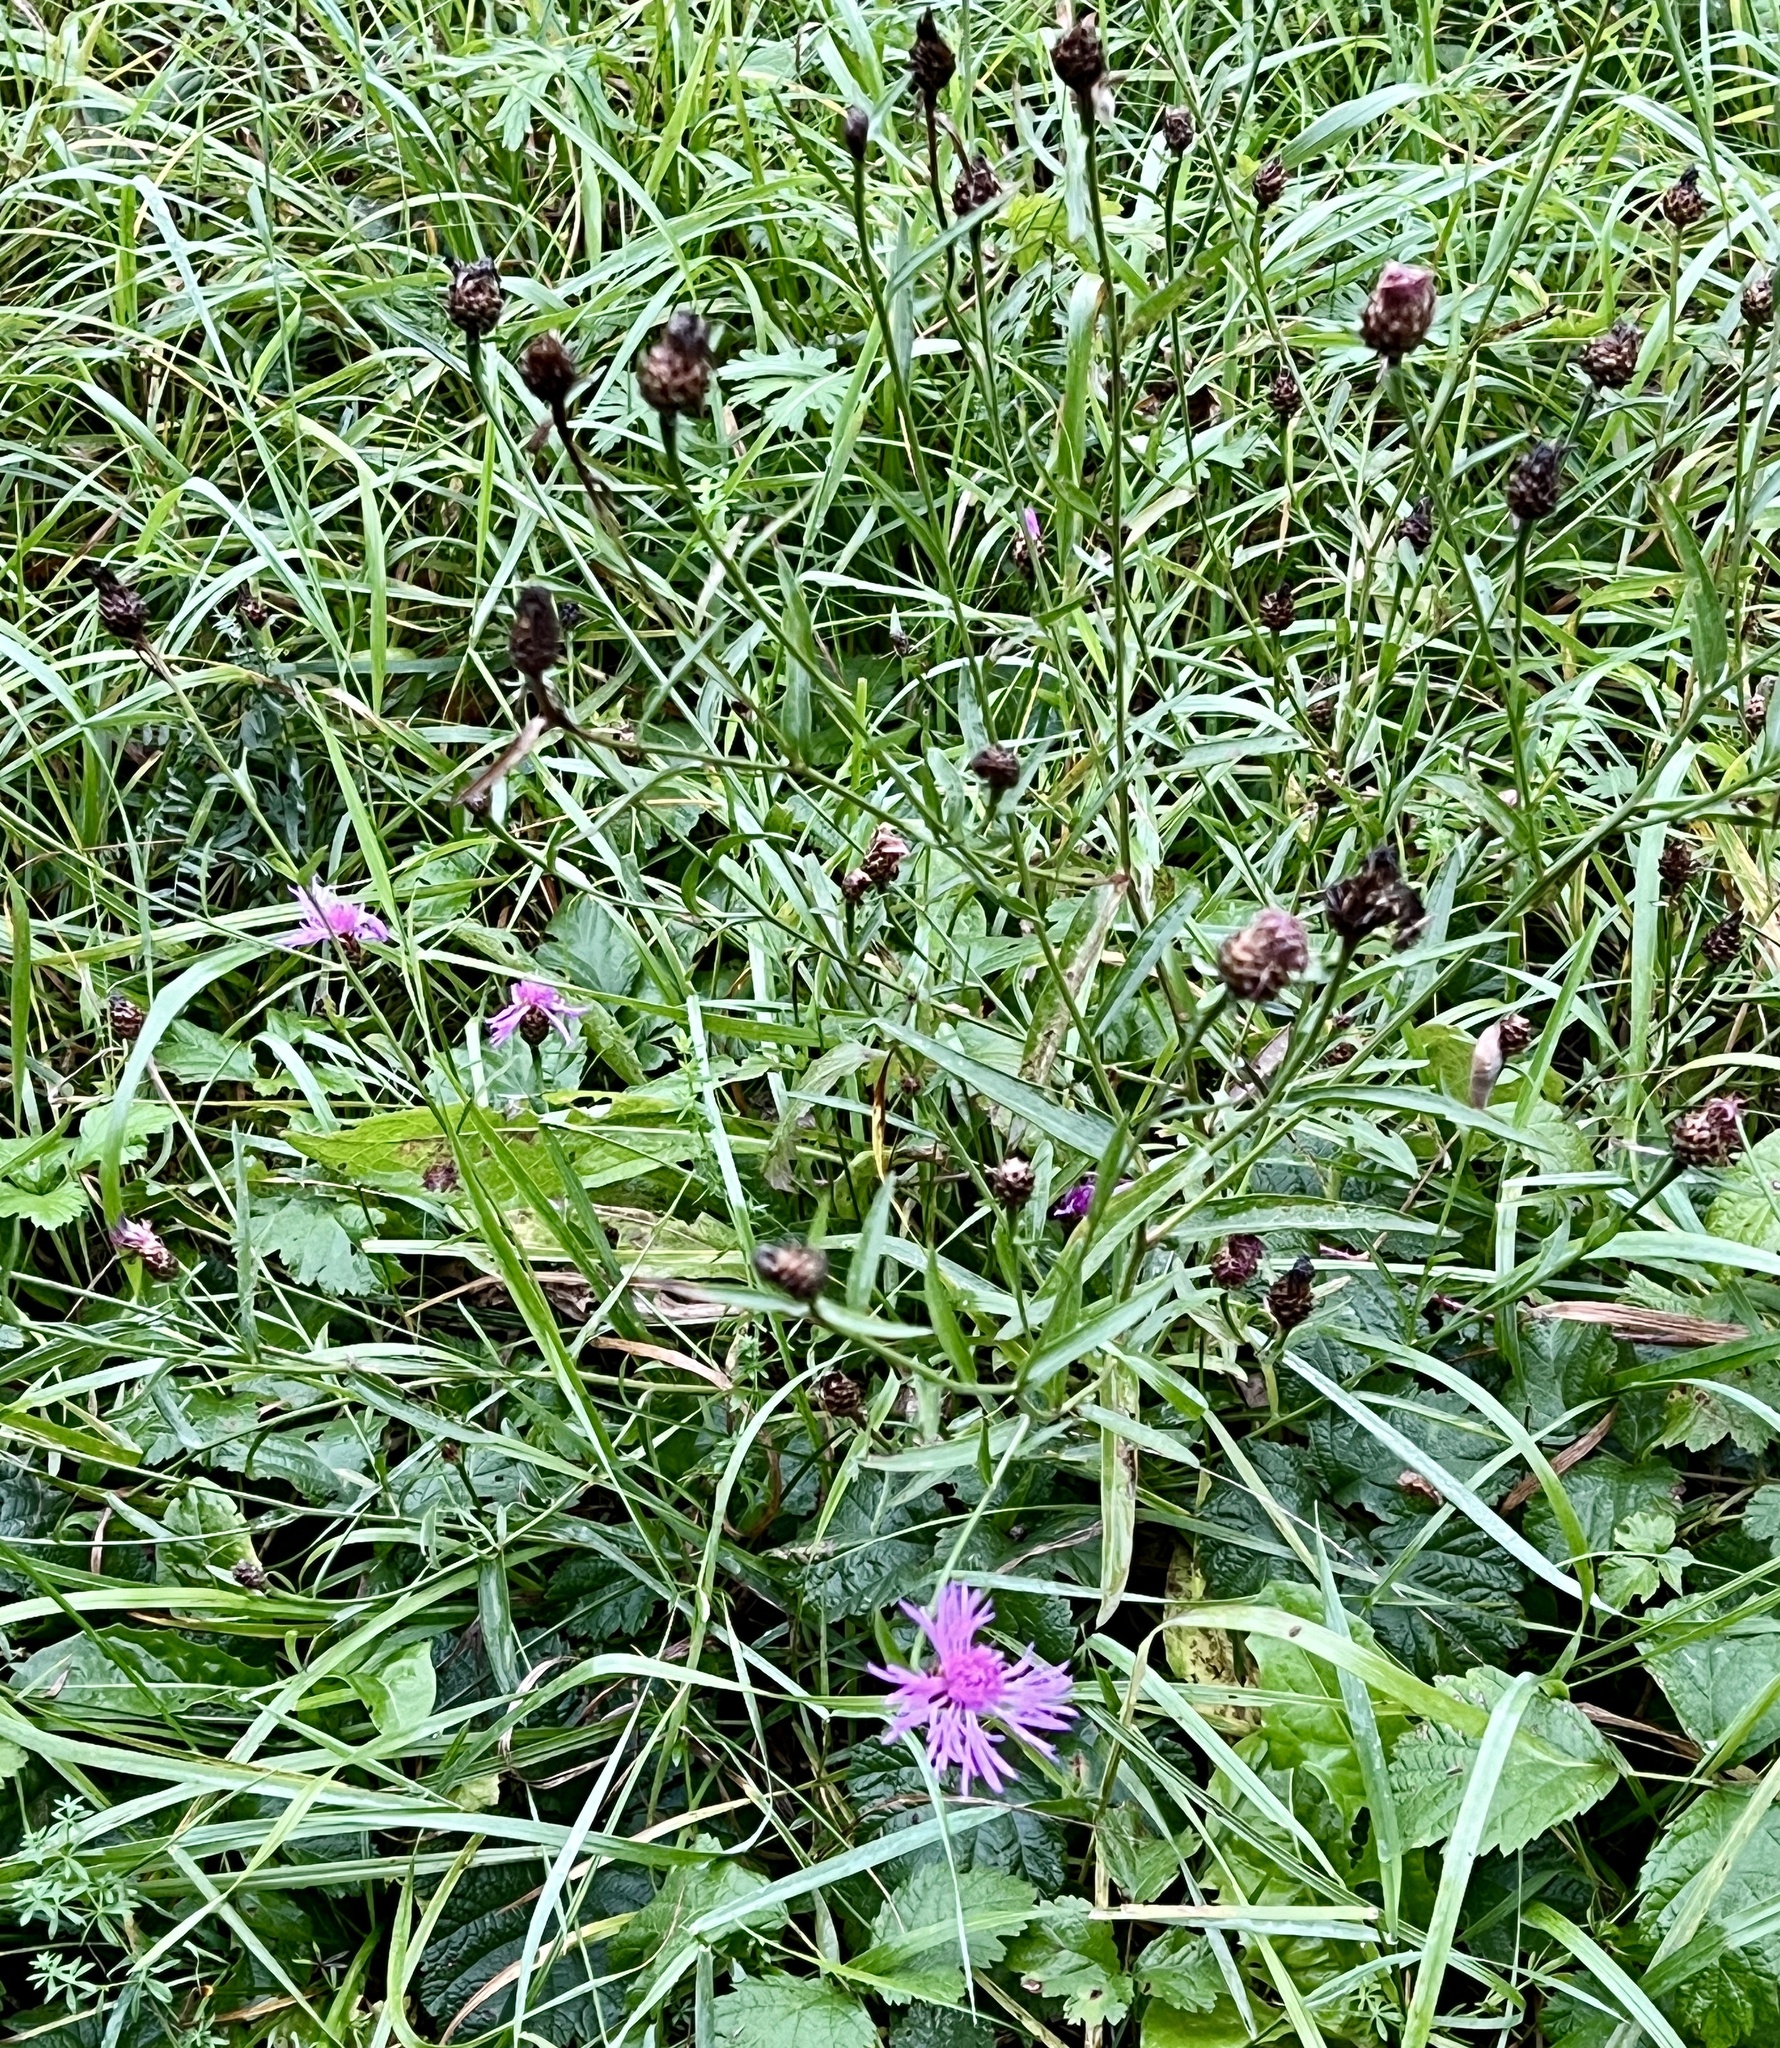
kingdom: Plantae
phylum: Tracheophyta
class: Magnoliopsida
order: Asterales
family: Asteraceae
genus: Centaurea
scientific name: Centaurea jacea
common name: Brown knapweed
